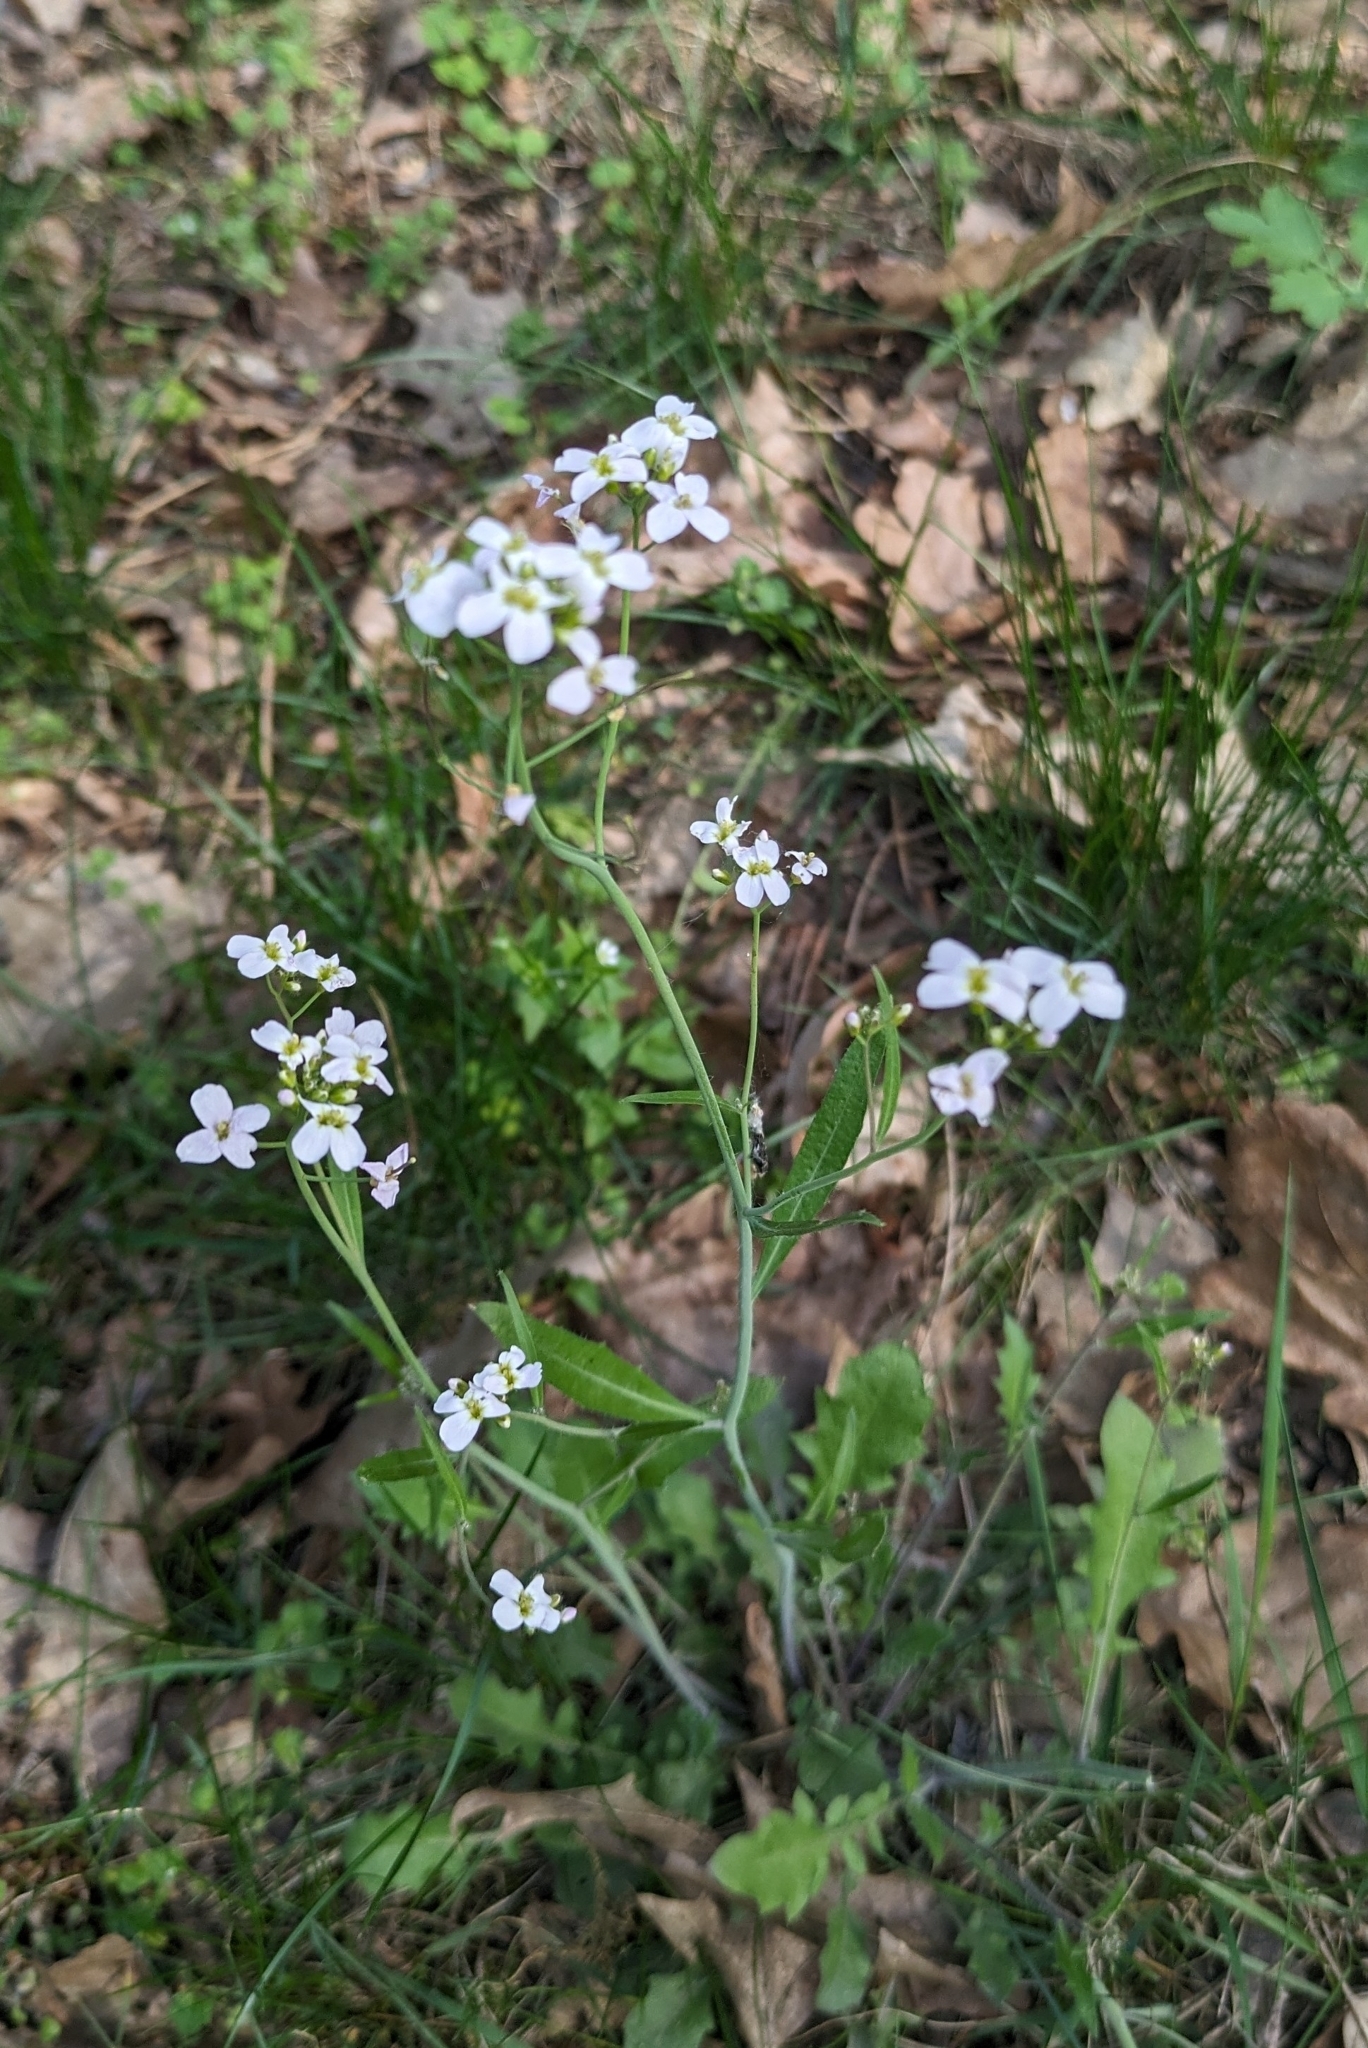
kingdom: Plantae
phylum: Tracheophyta
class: Magnoliopsida
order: Brassicales
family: Brassicaceae
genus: Arabidopsis
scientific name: Arabidopsis arenosa
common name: Sand rock-cress
